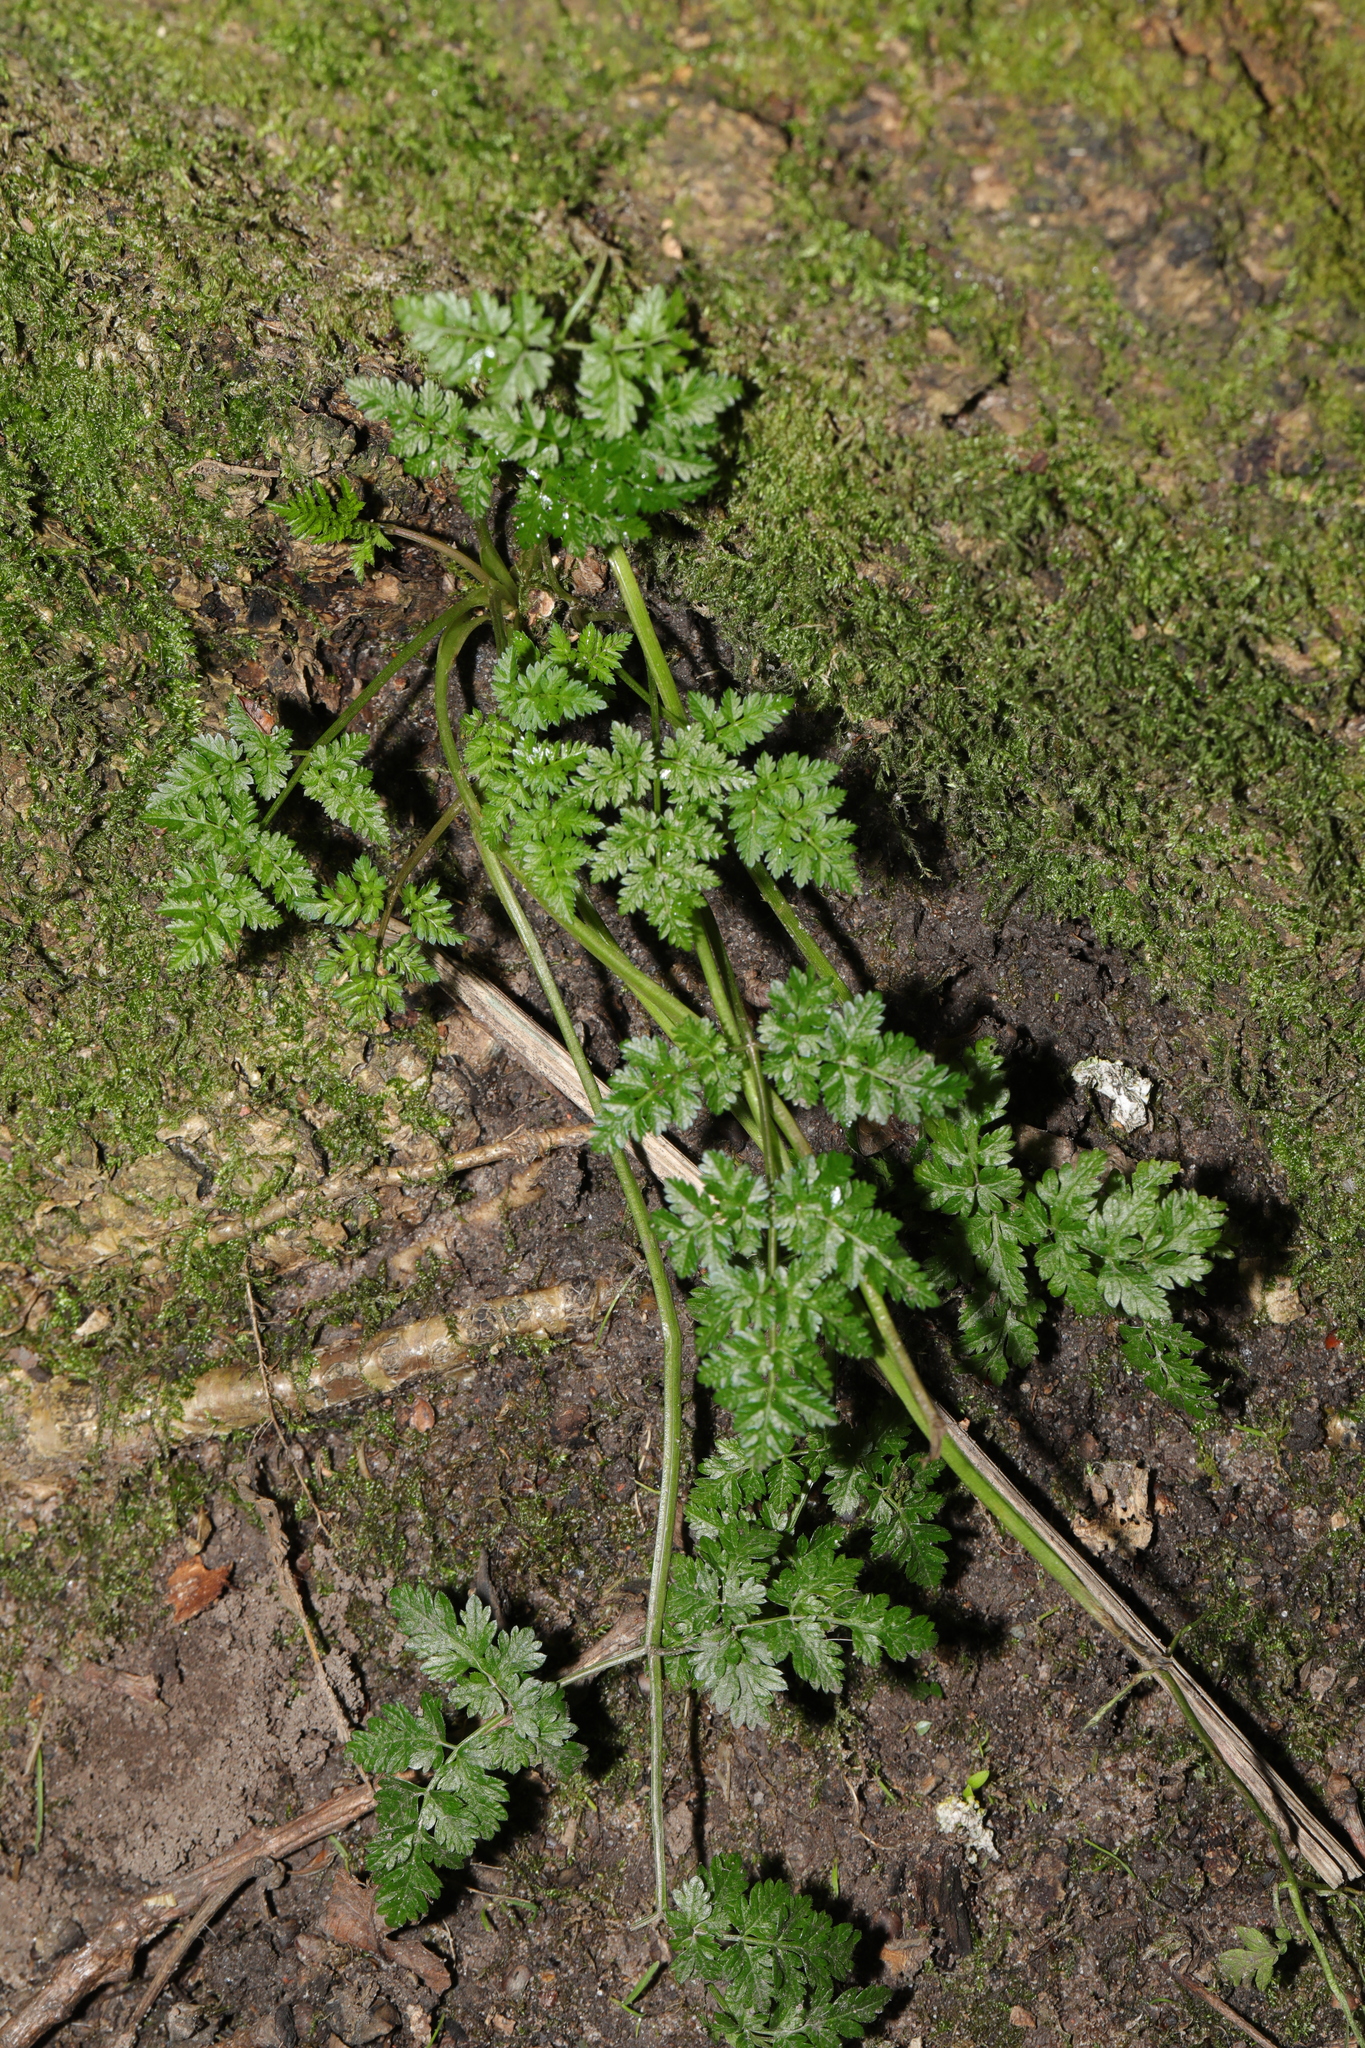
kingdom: Plantae
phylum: Tracheophyta
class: Magnoliopsida
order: Apiales
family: Apiaceae
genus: Anthriscus
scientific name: Anthriscus sylvestris
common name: Cow parsley
